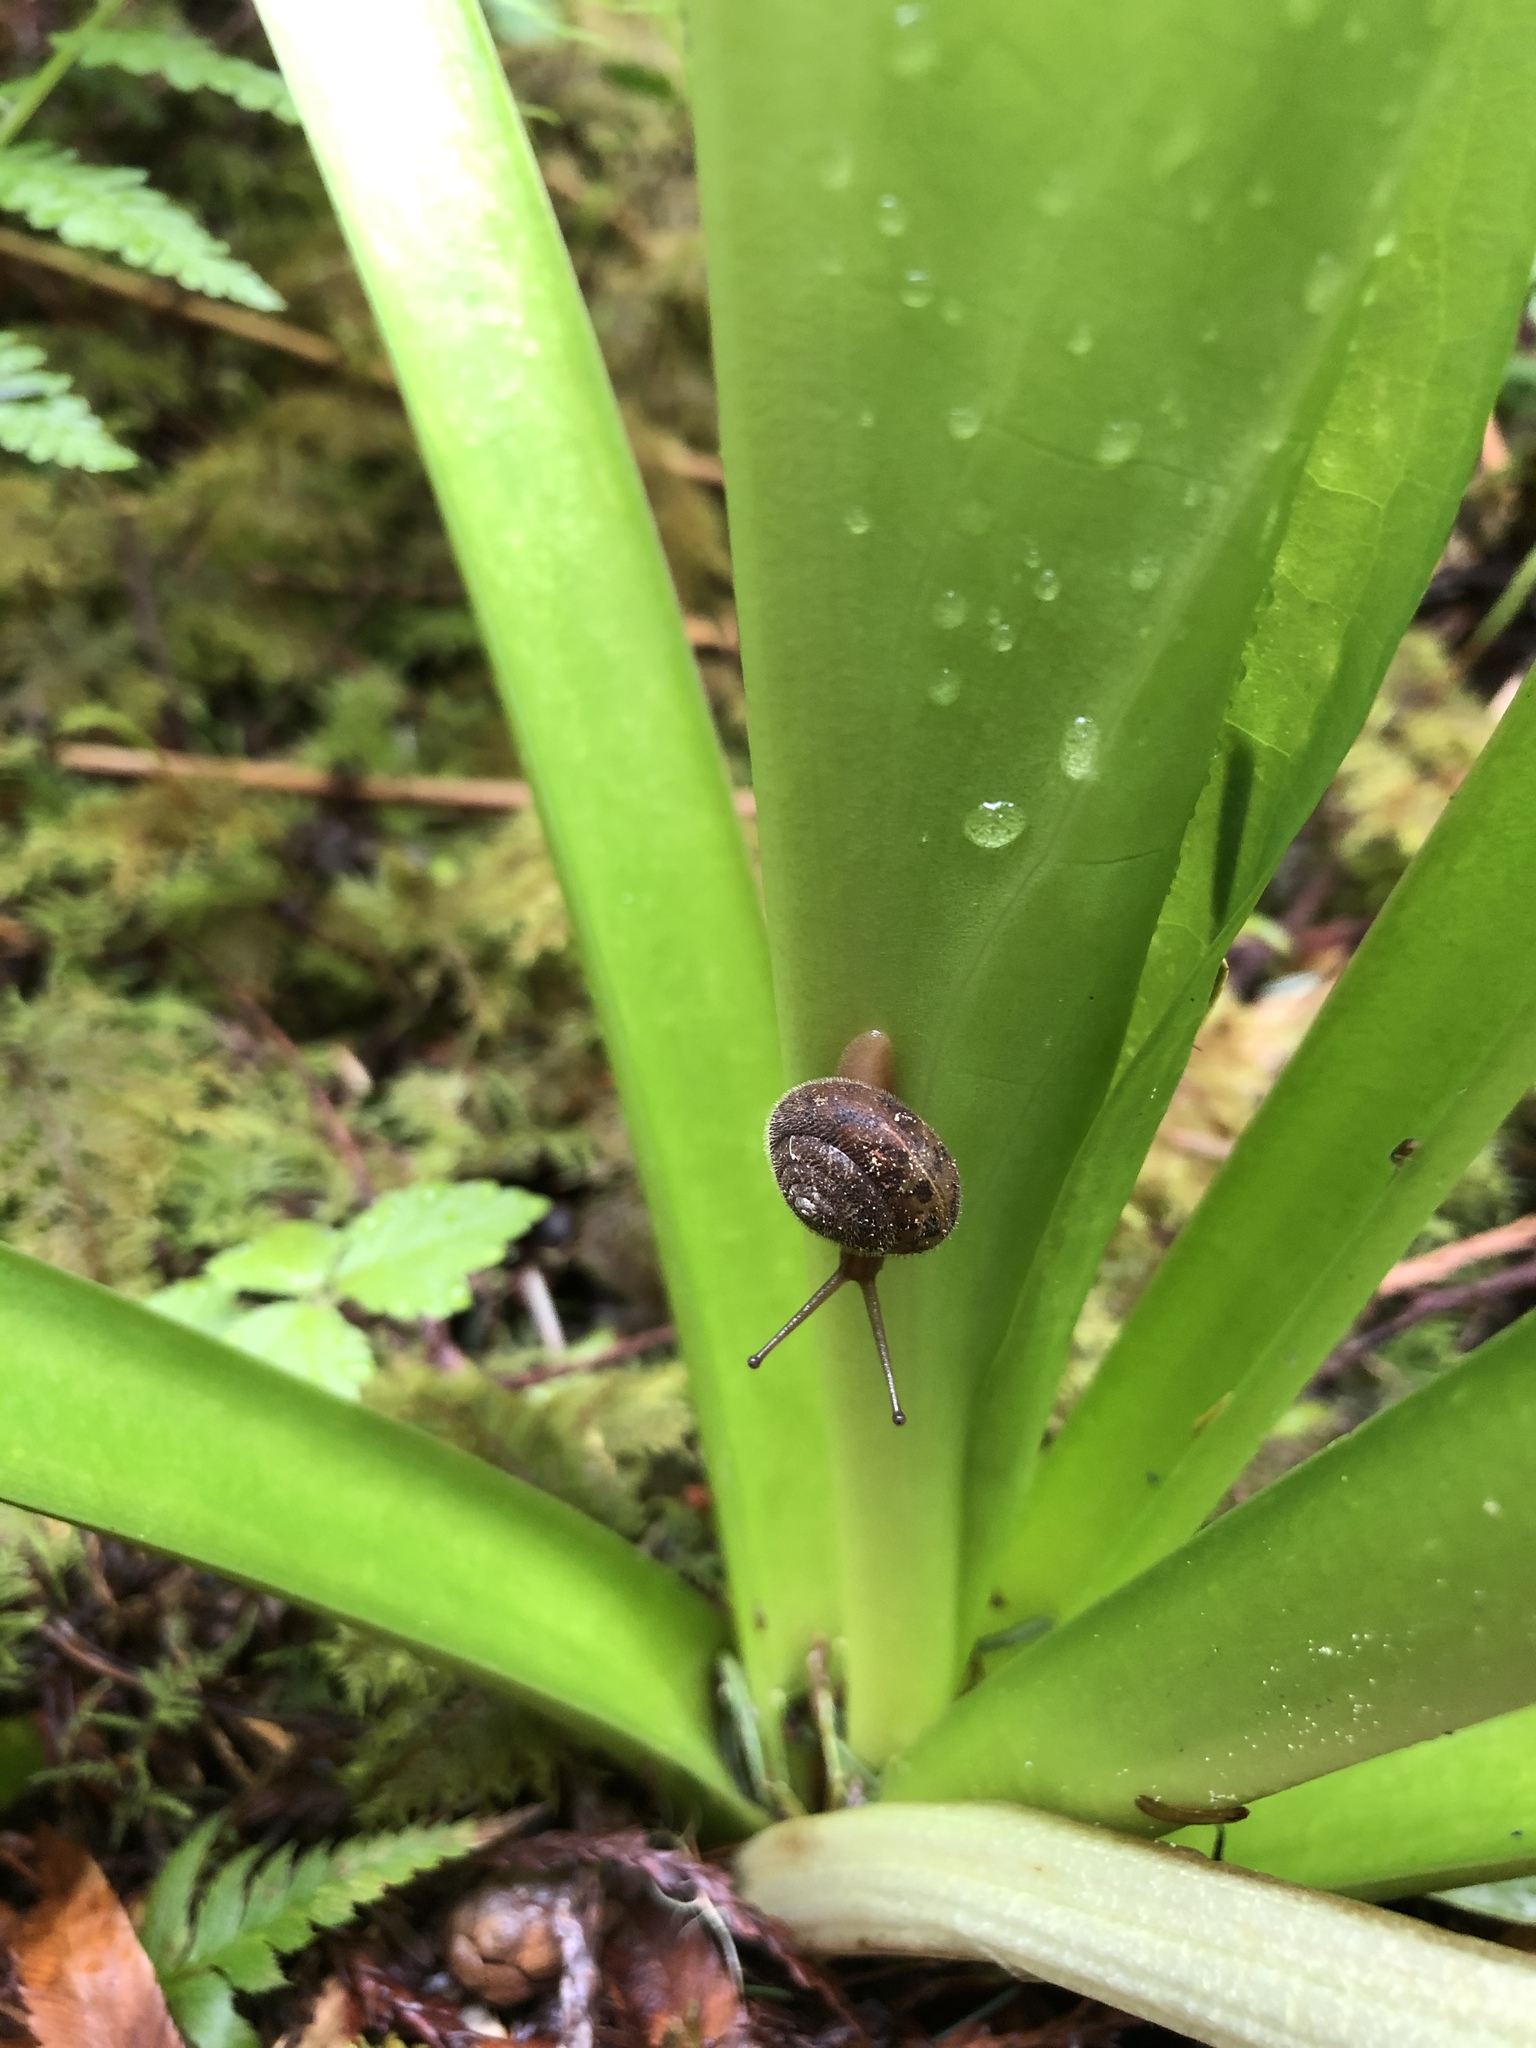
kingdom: Animalia
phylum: Mollusca
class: Gastropoda
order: Stylommatophora
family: Polygyridae
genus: Vespericola
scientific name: Vespericola columbianus
